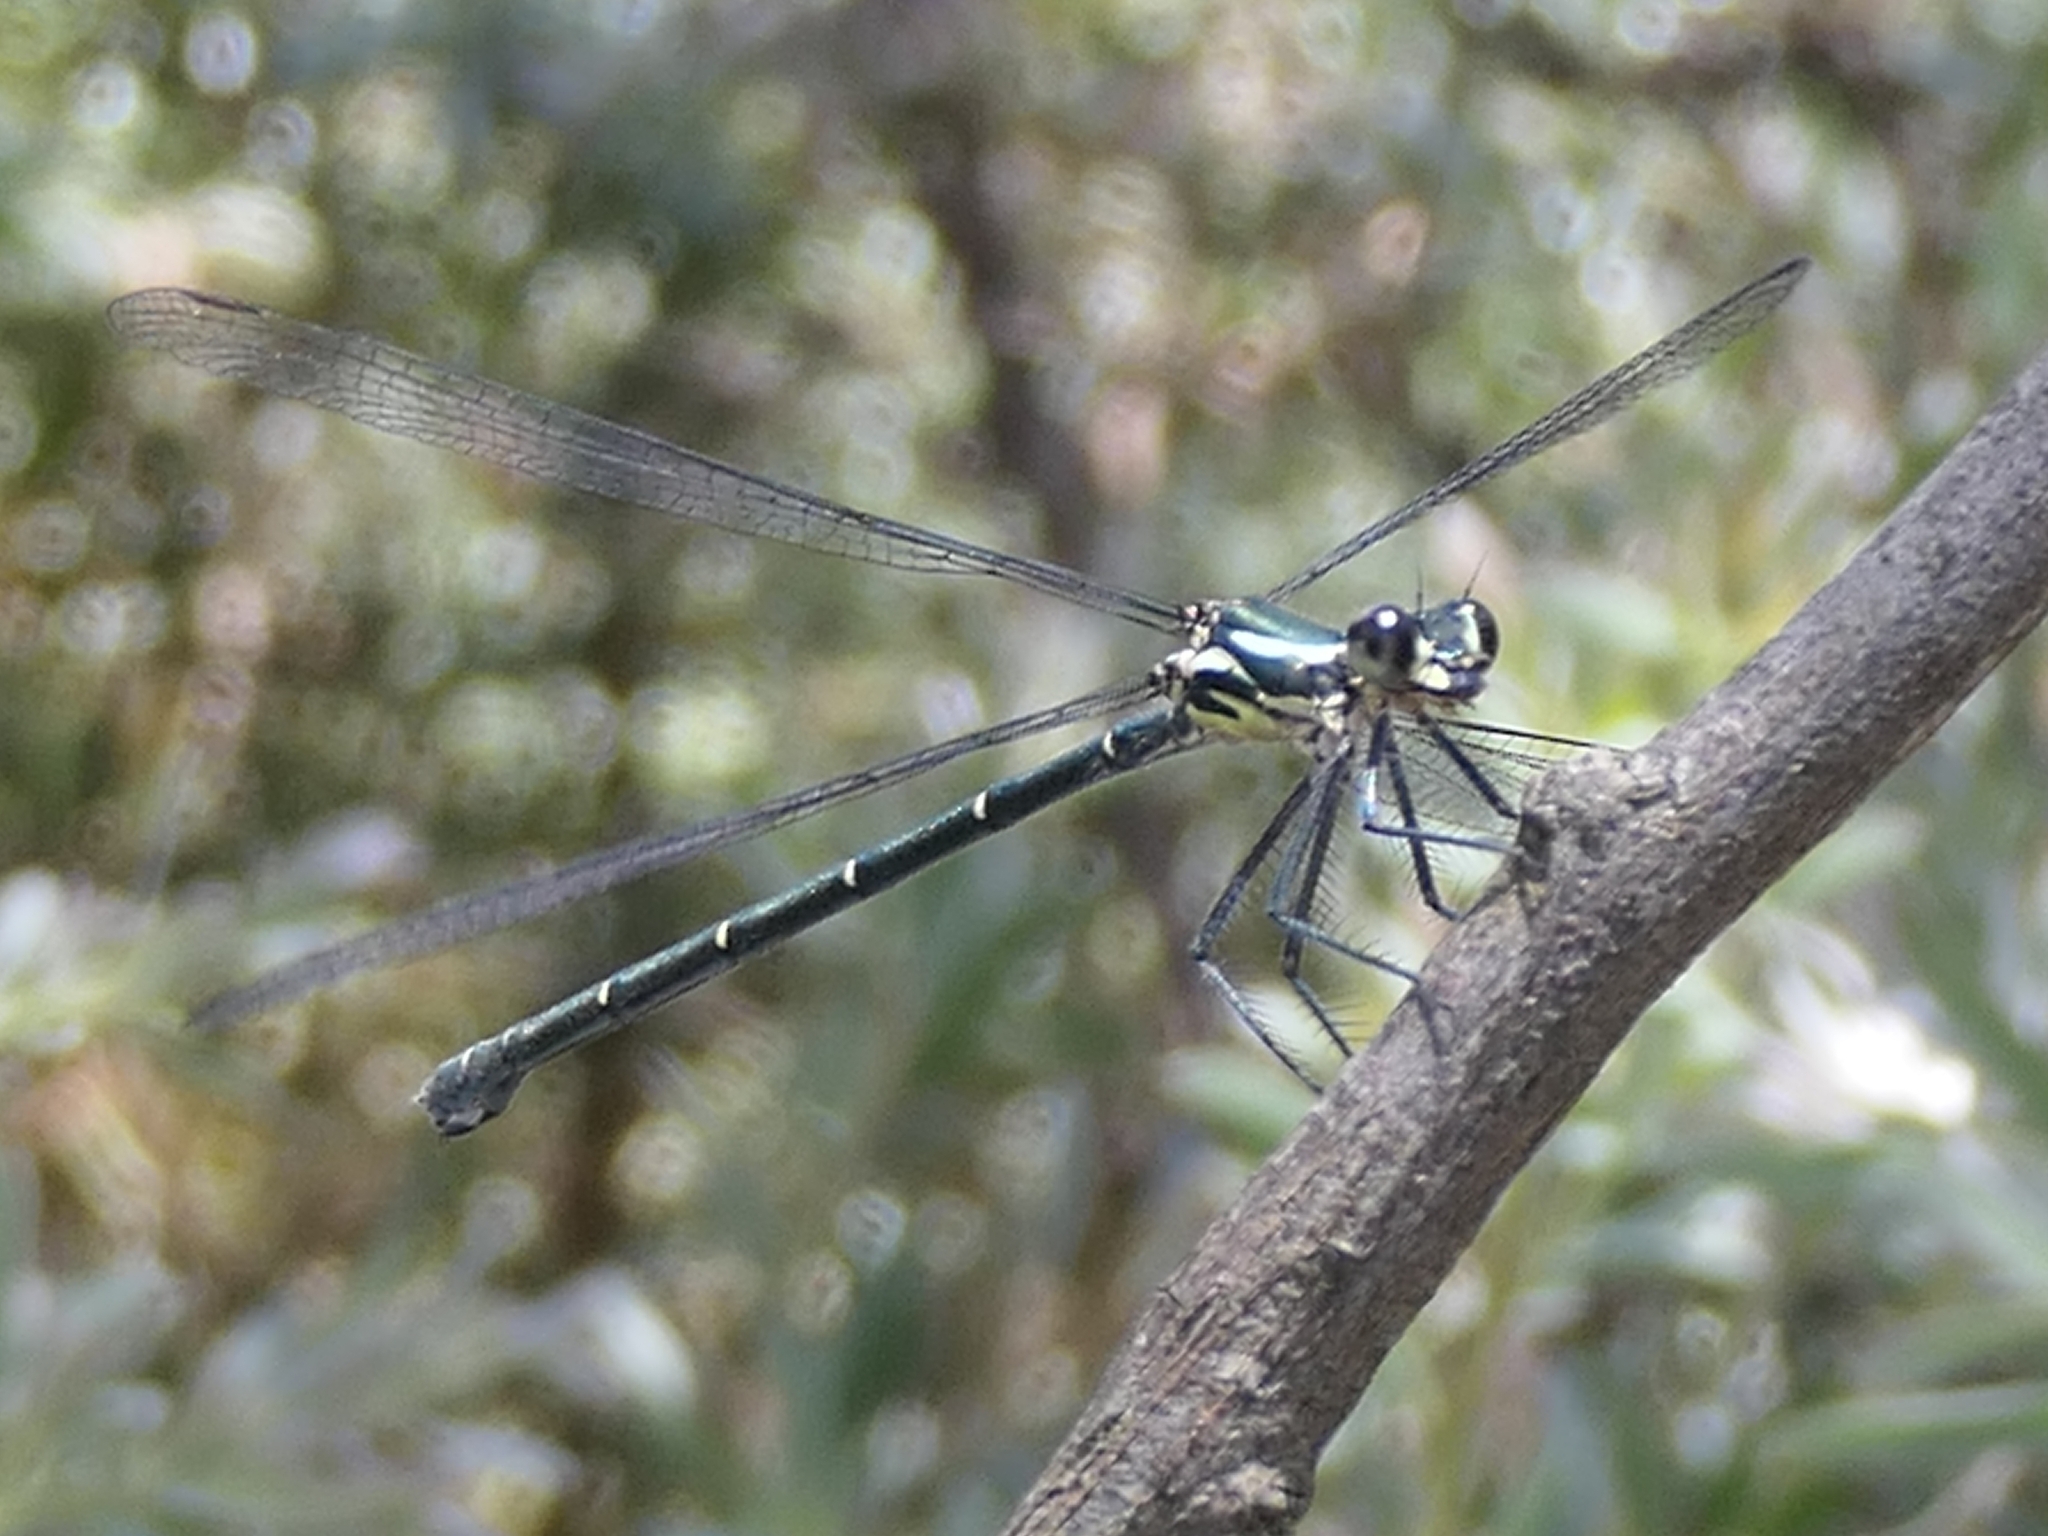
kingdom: Animalia
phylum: Arthropoda
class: Insecta
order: Odonata
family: Argiolestidae
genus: Austroargiolestes
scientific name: Austroargiolestes icteromelas
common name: Common flatwing
